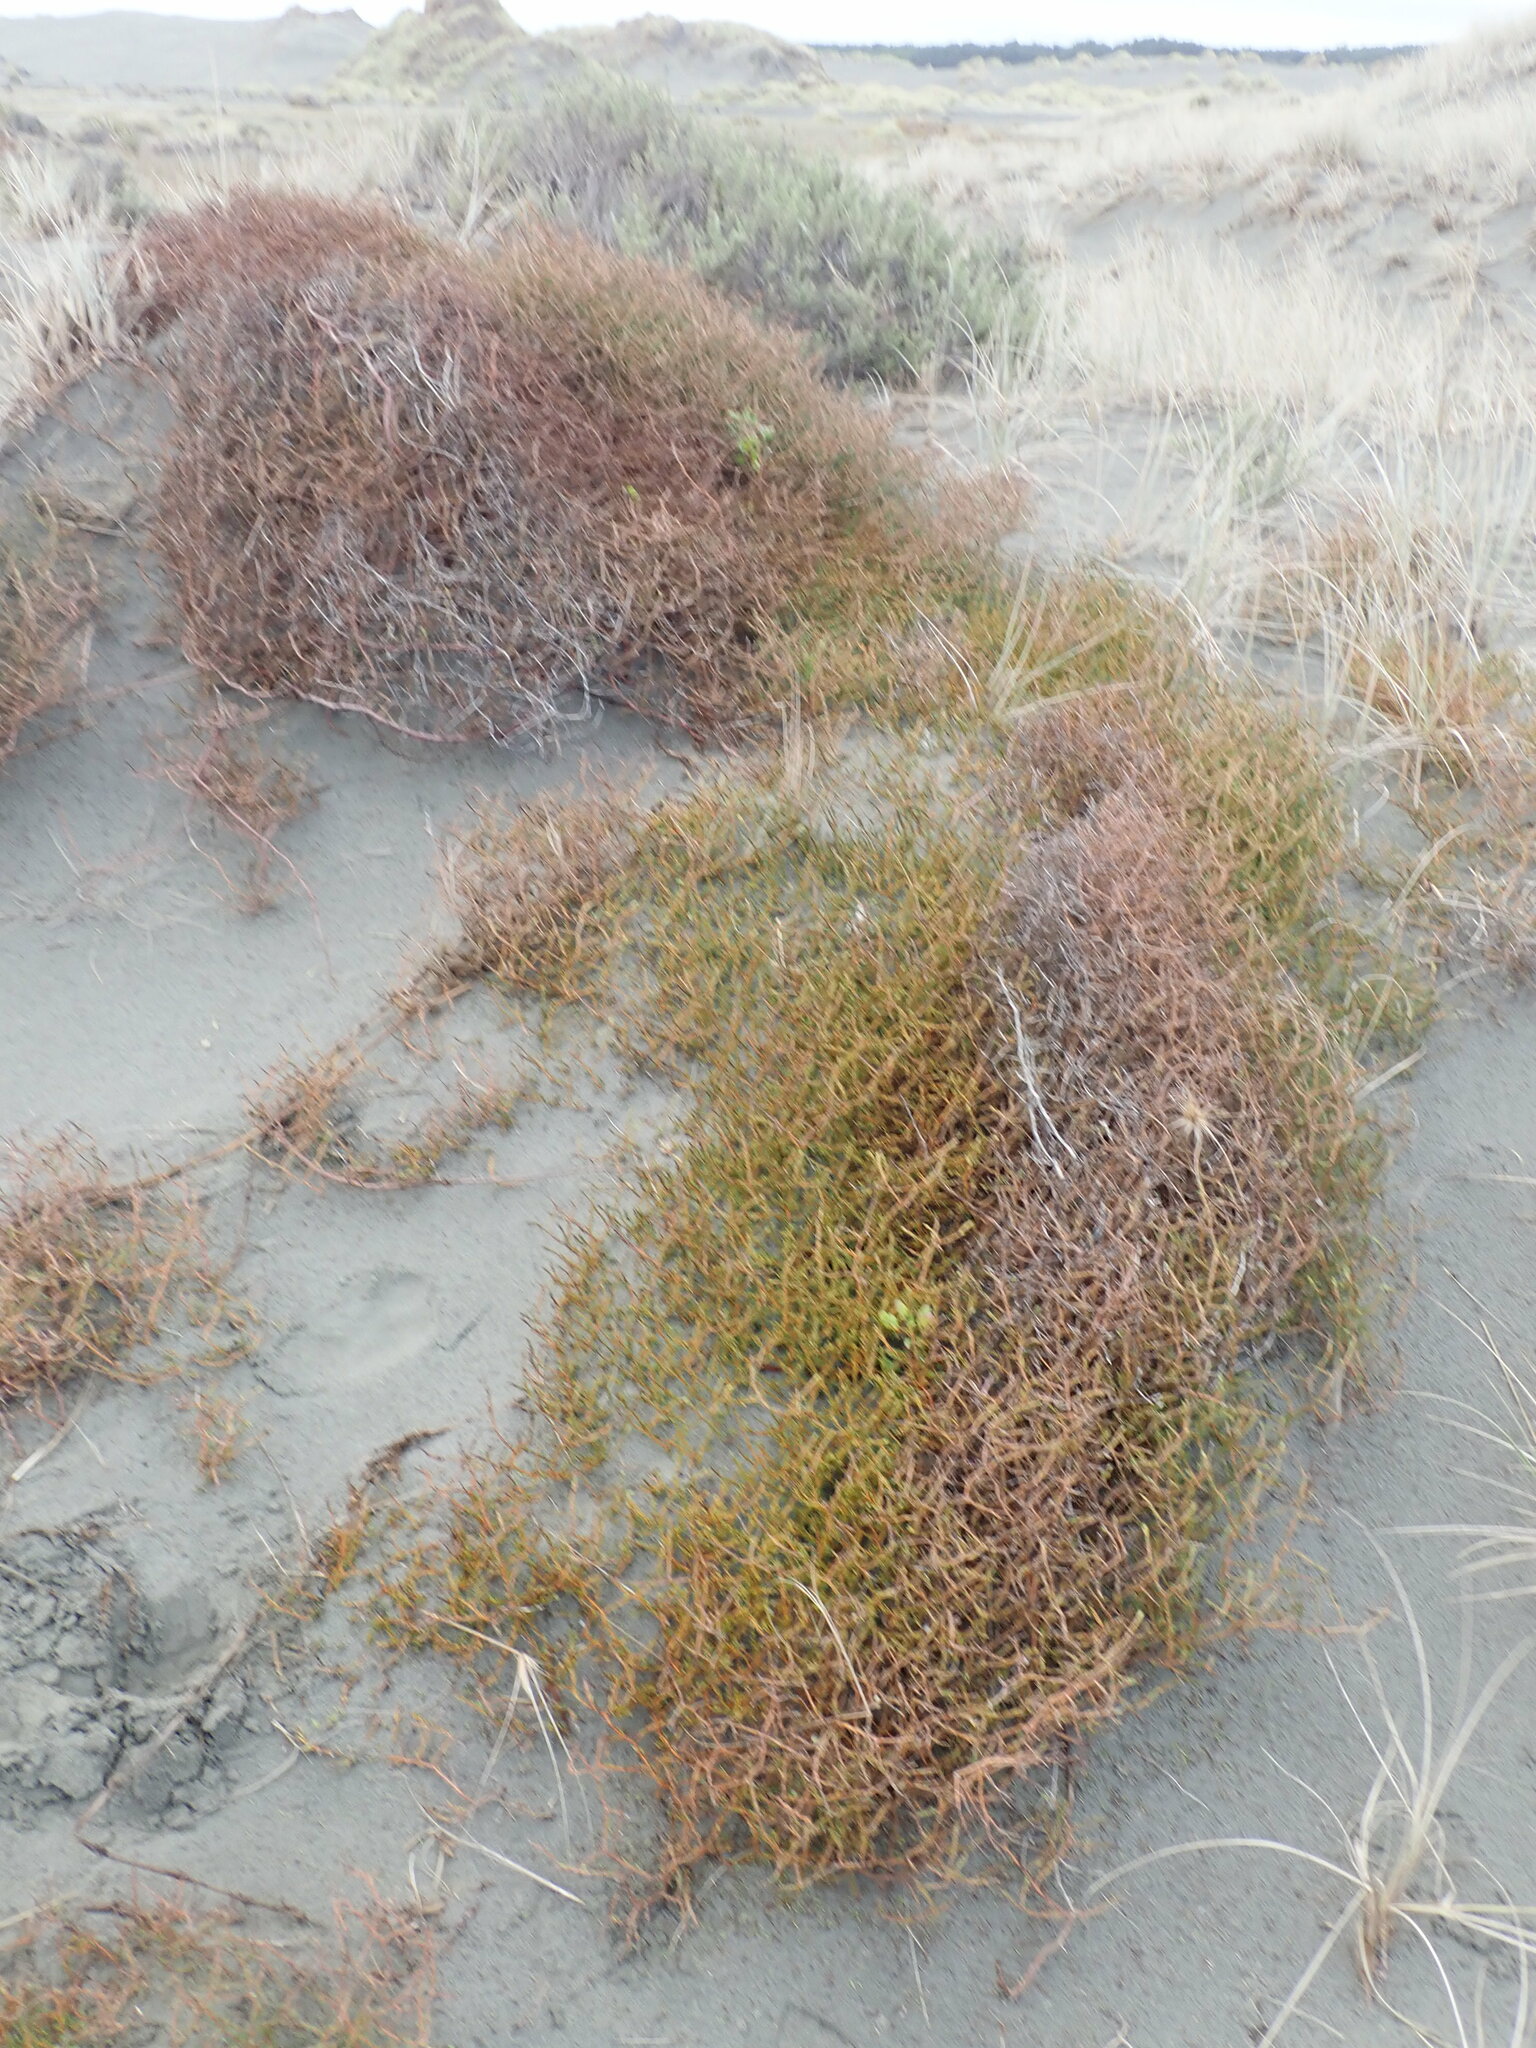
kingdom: Fungi
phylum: Basidiomycota
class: Agaricomycetes
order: Phallales
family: Phallaceae
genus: Ileodictyon
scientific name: Ileodictyon cibarium
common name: Basket fungus
